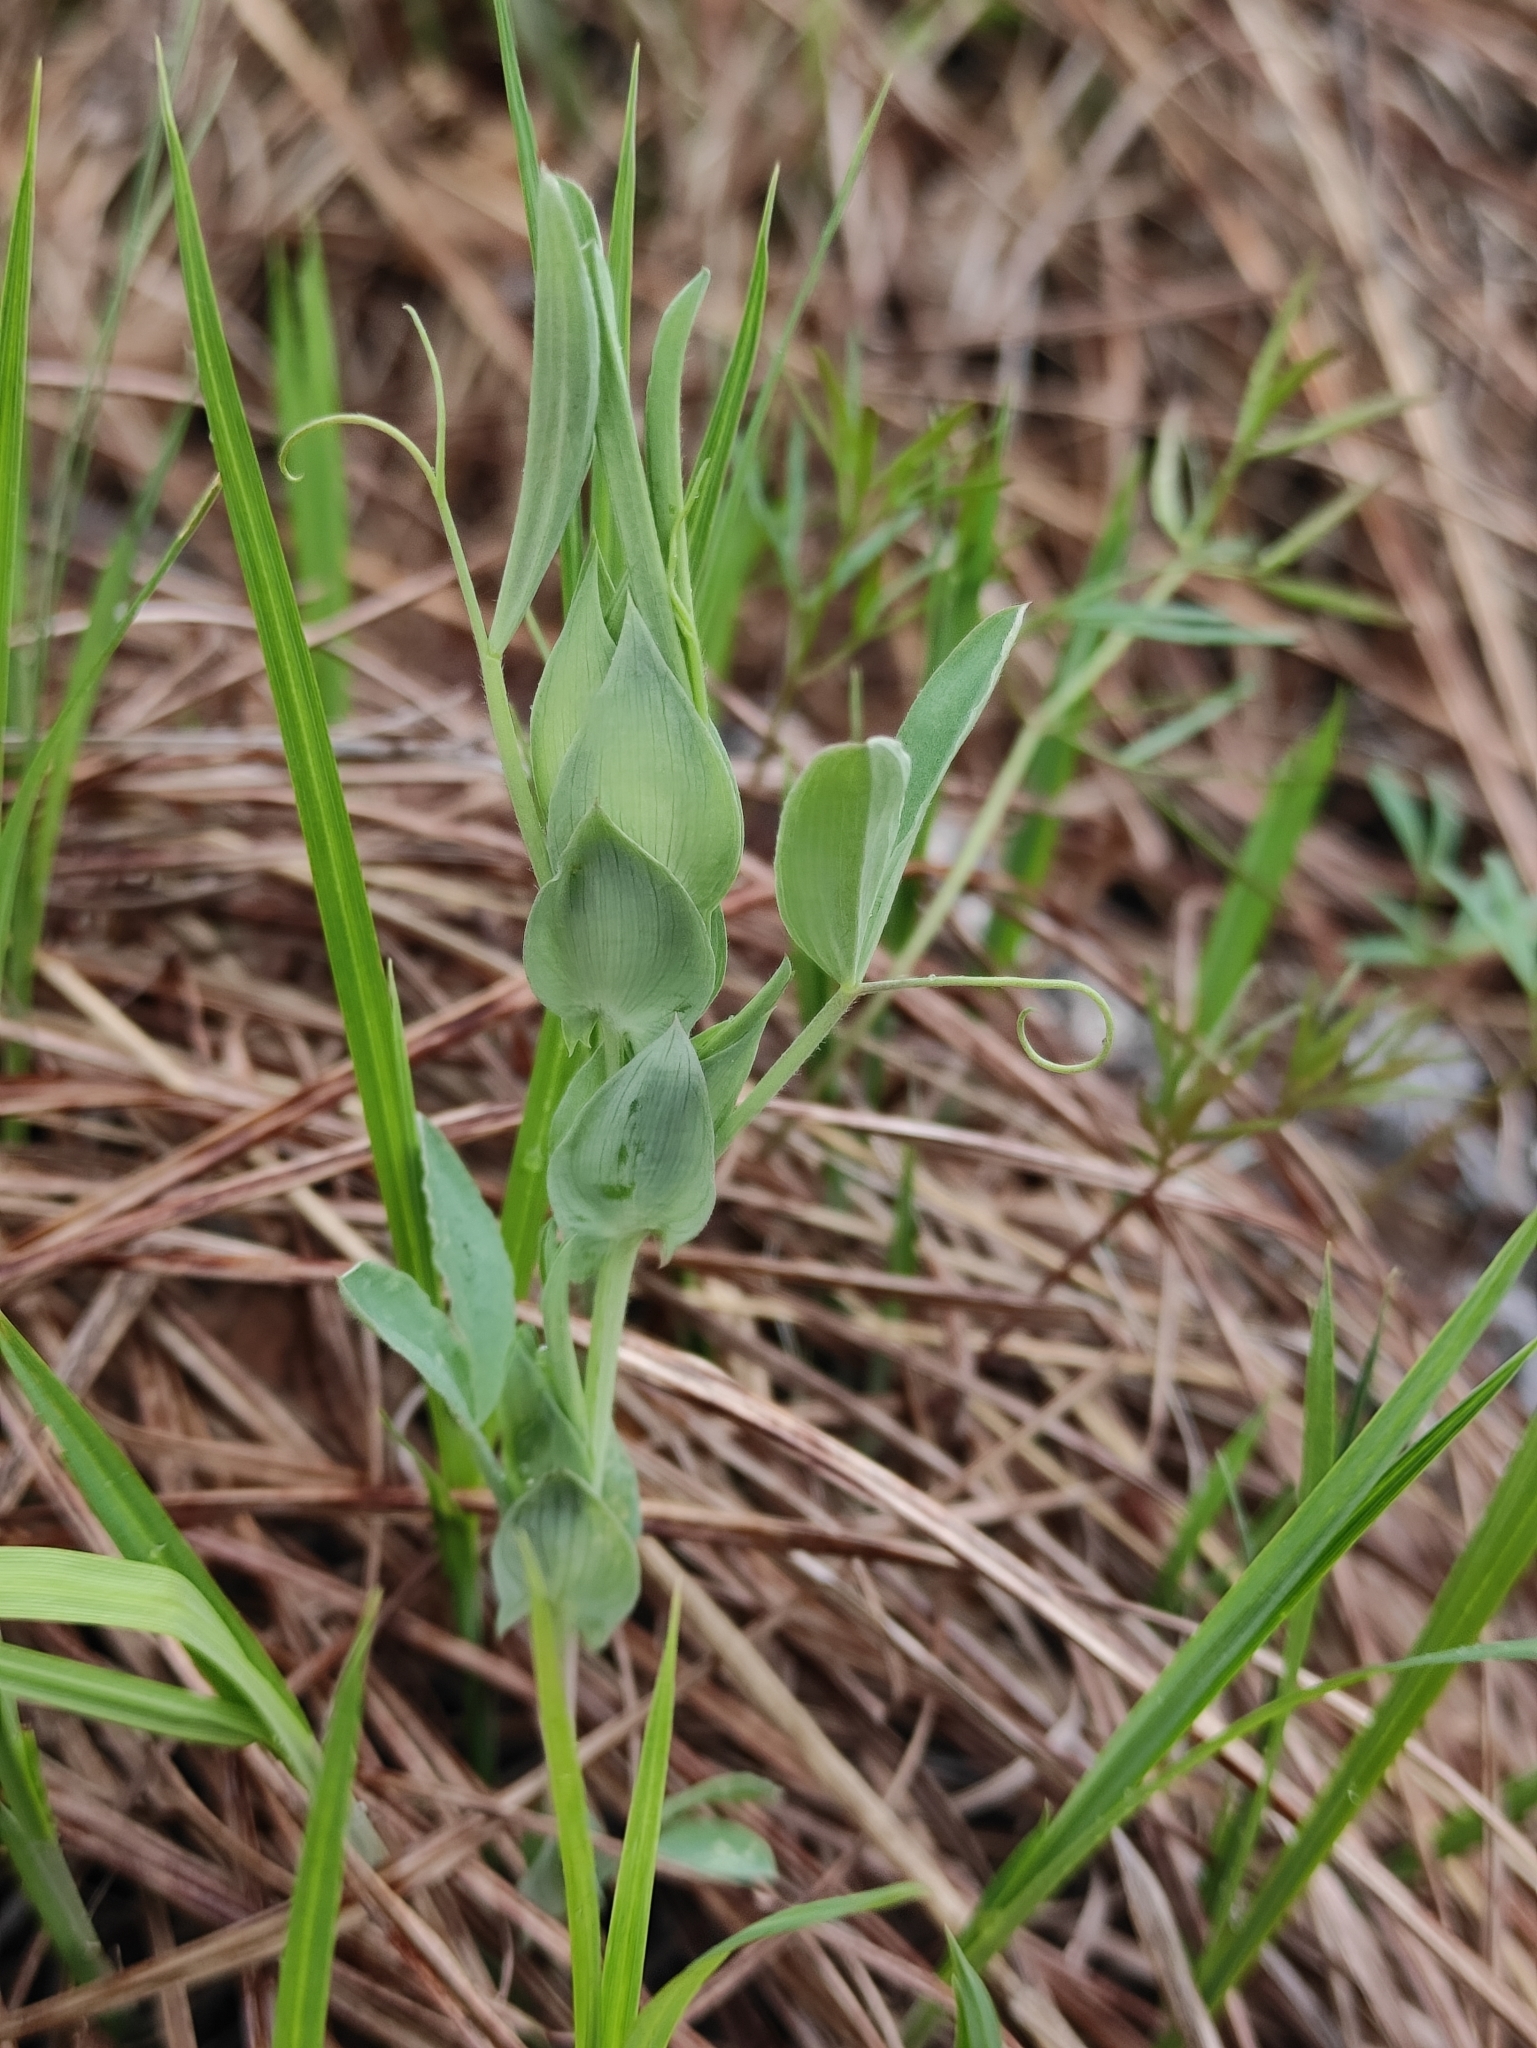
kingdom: Plantae
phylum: Tracheophyta
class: Magnoliopsida
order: Fabales
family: Fabaceae
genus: Lathyrus
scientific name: Lathyrus pratensis
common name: Meadow vetchling
